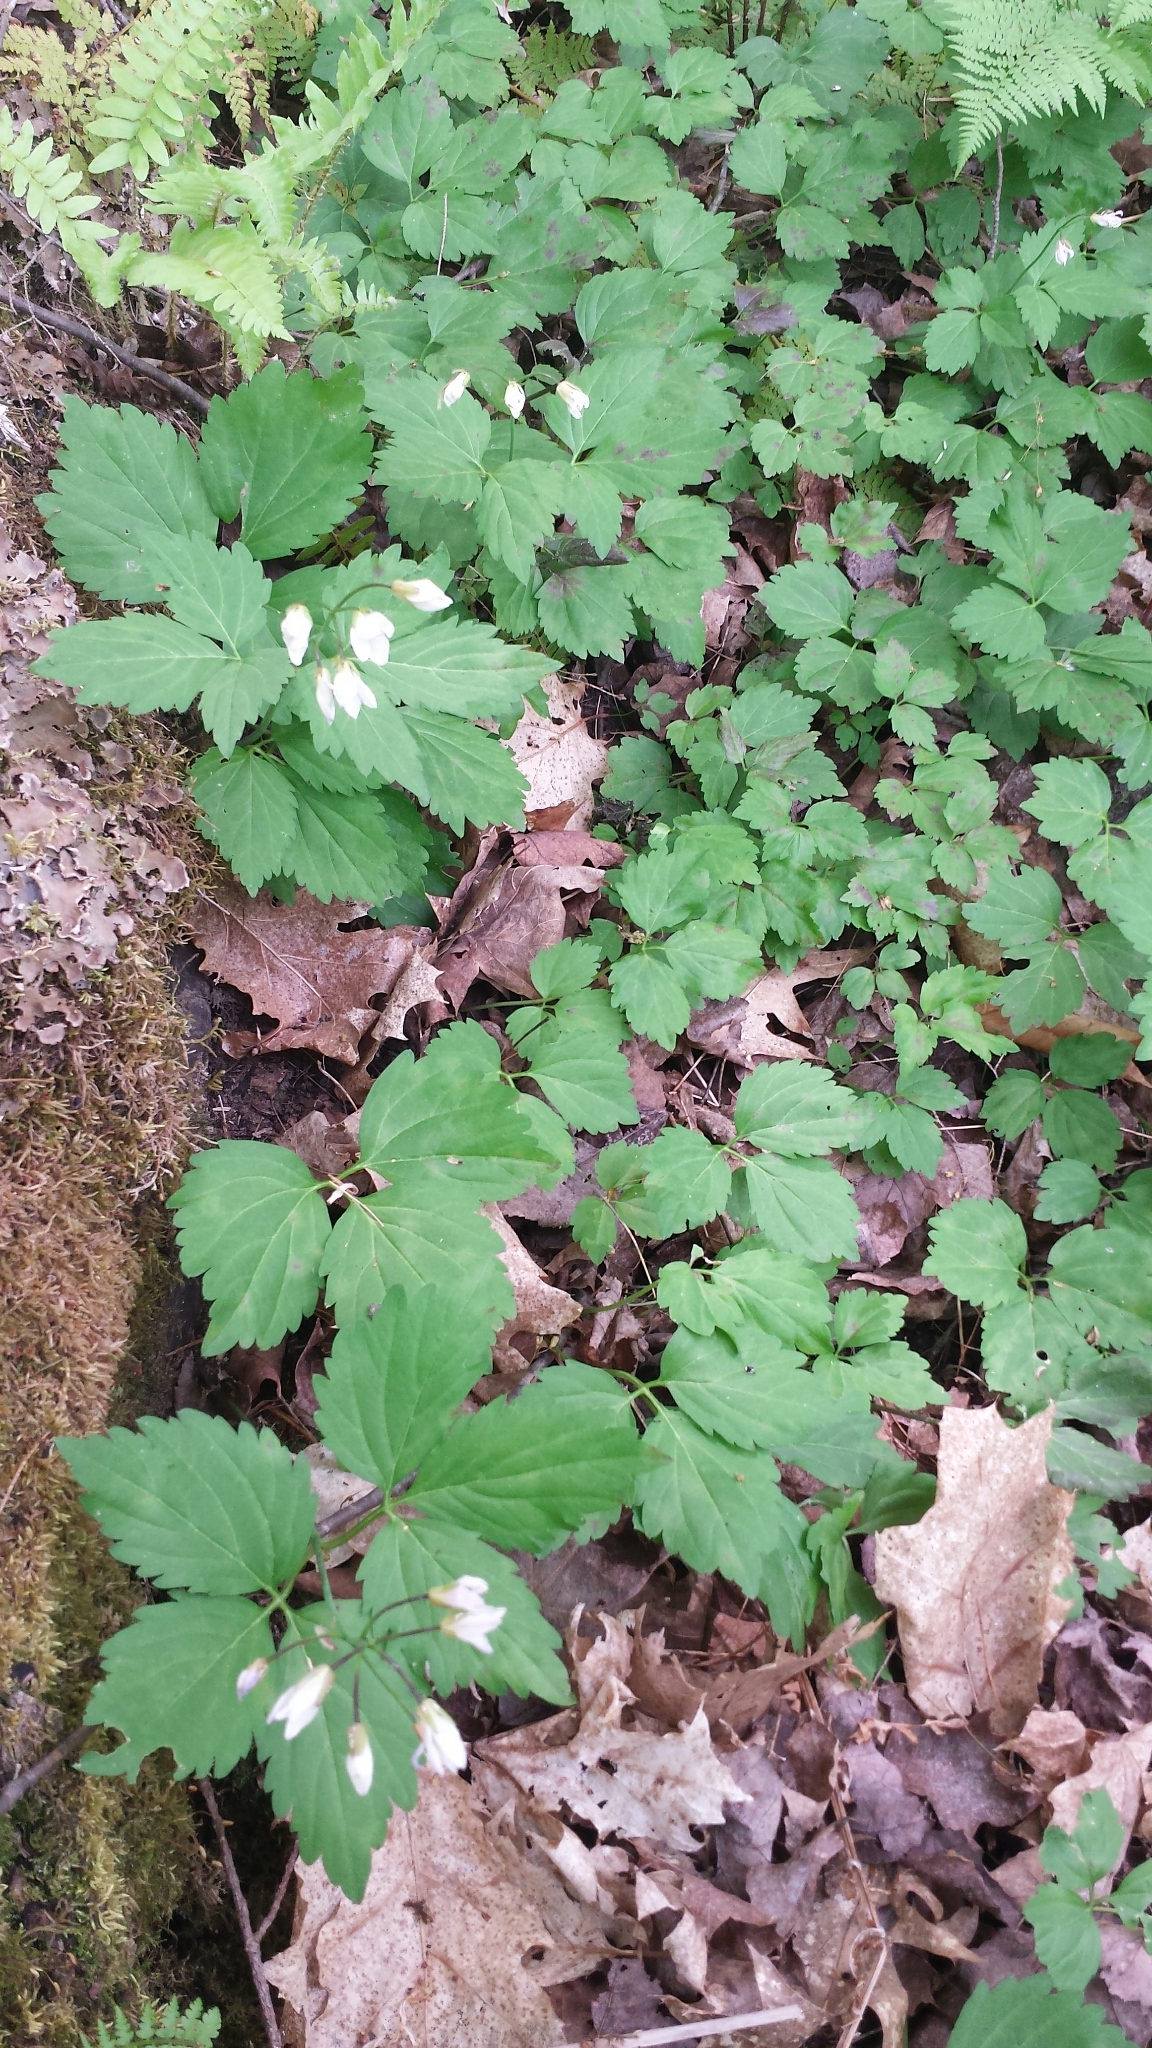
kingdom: Plantae
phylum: Tracheophyta
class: Magnoliopsida
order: Brassicales
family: Brassicaceae
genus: Cardamine
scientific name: Cardamine diphylla
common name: Broad-leaved toothwort
